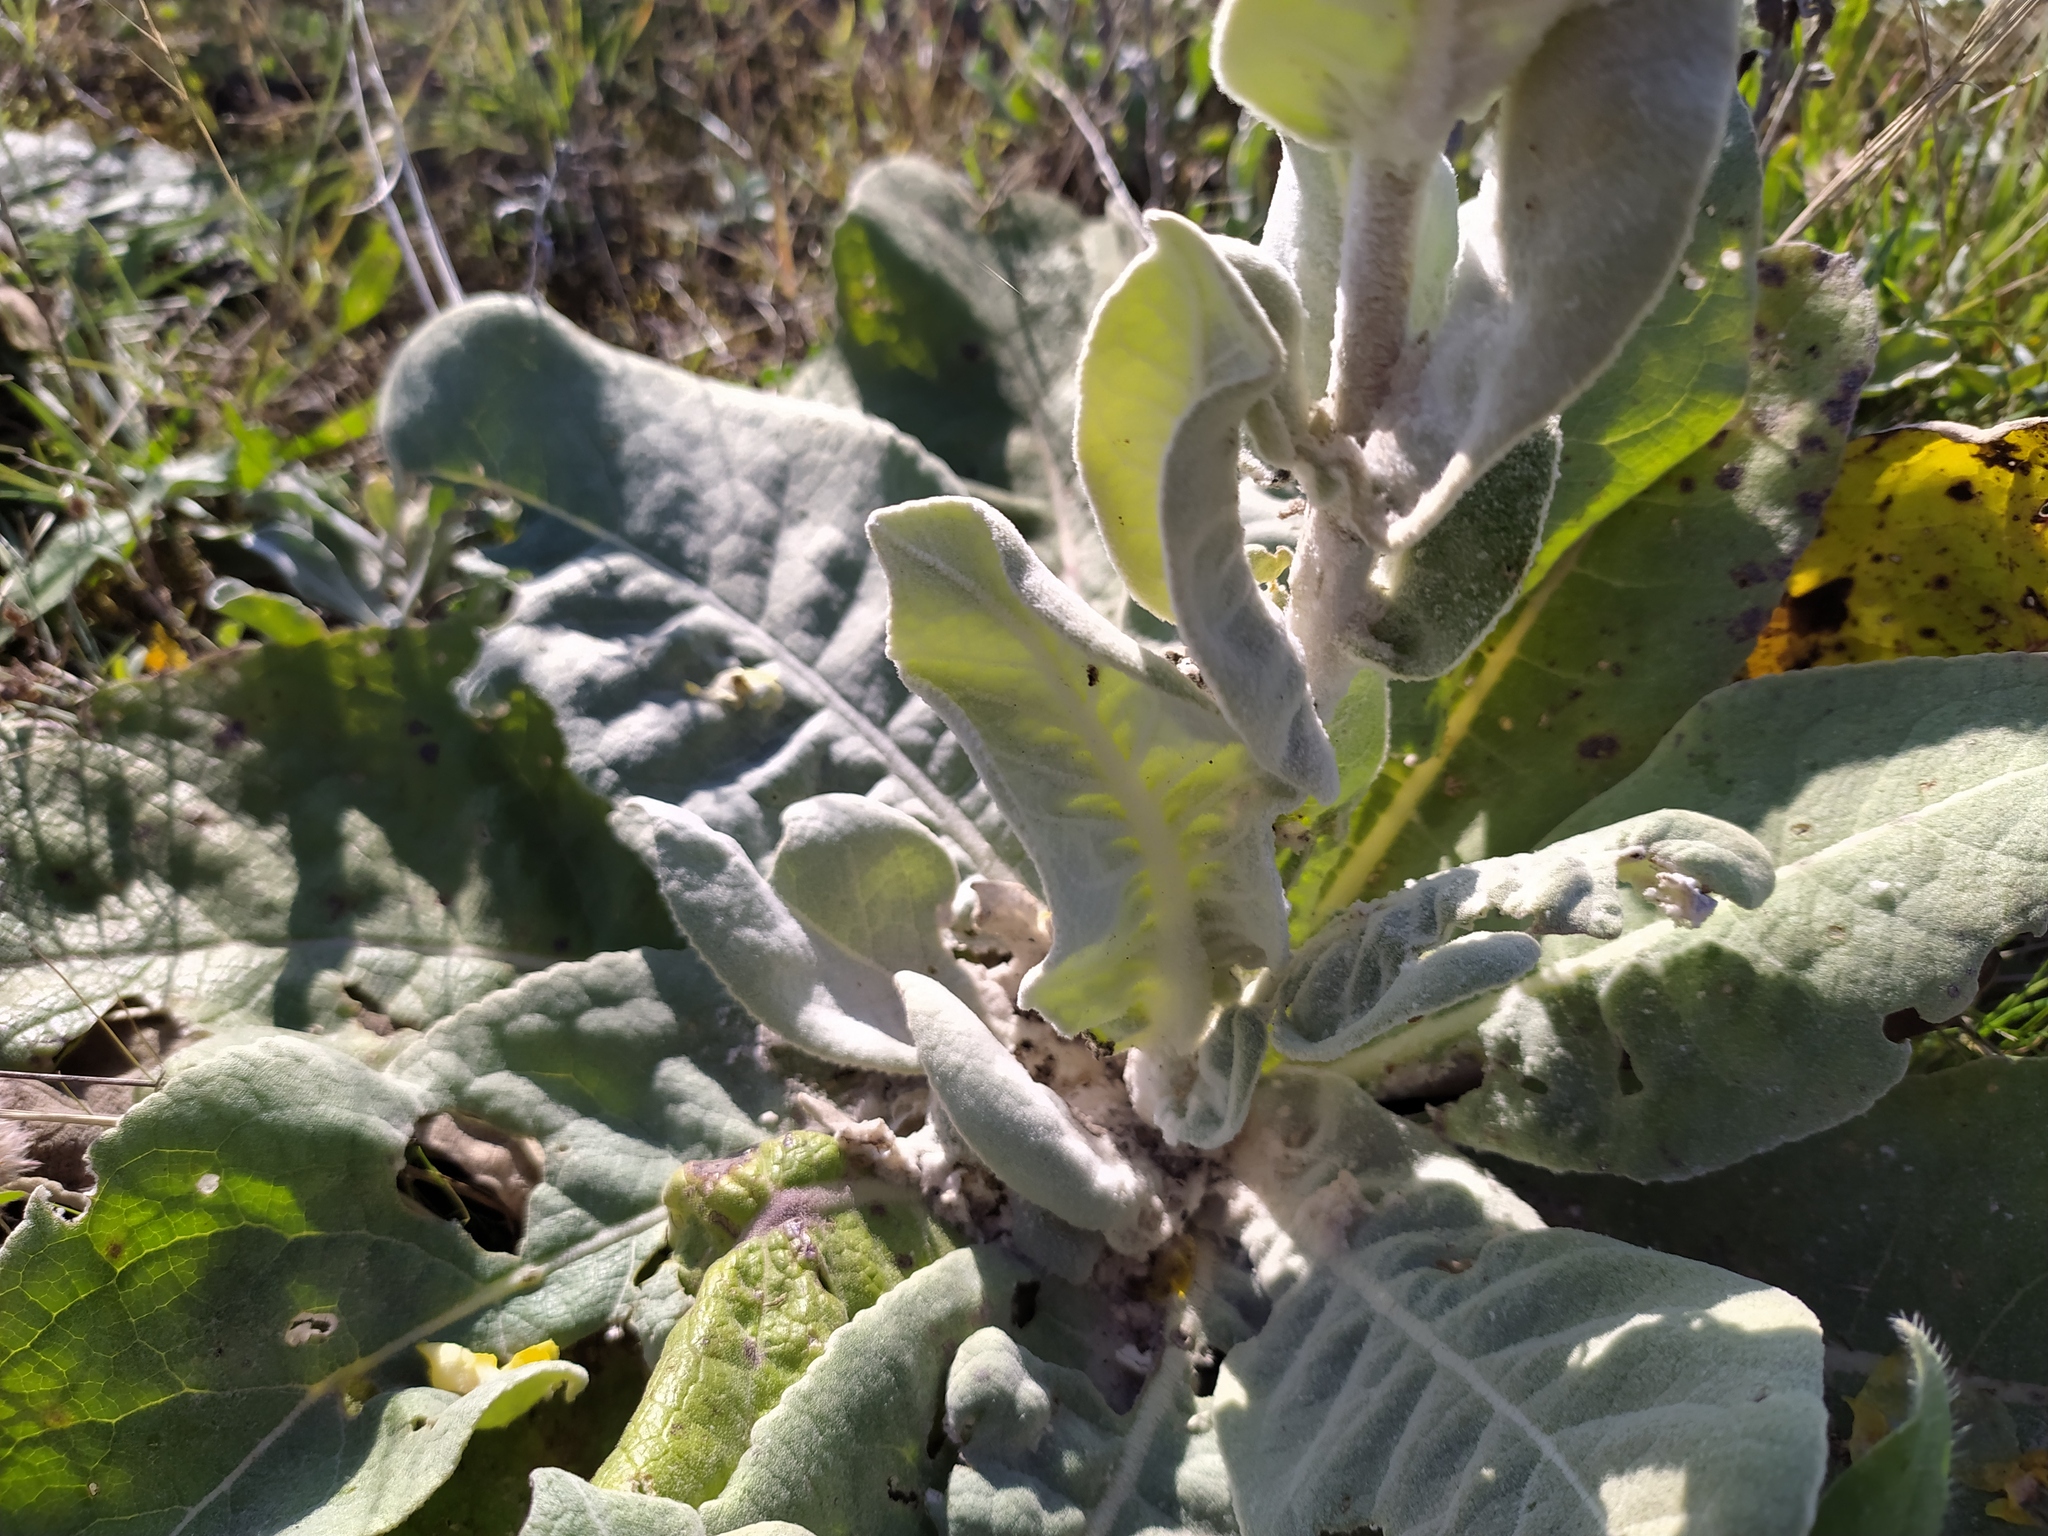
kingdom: Plantae
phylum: Tracheophyta
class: Magnoliopsida
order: Lamiales
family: Scrophulariaceae
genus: Verbascum
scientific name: Verbascum pulverulentum
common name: Broad-leaf mullein
